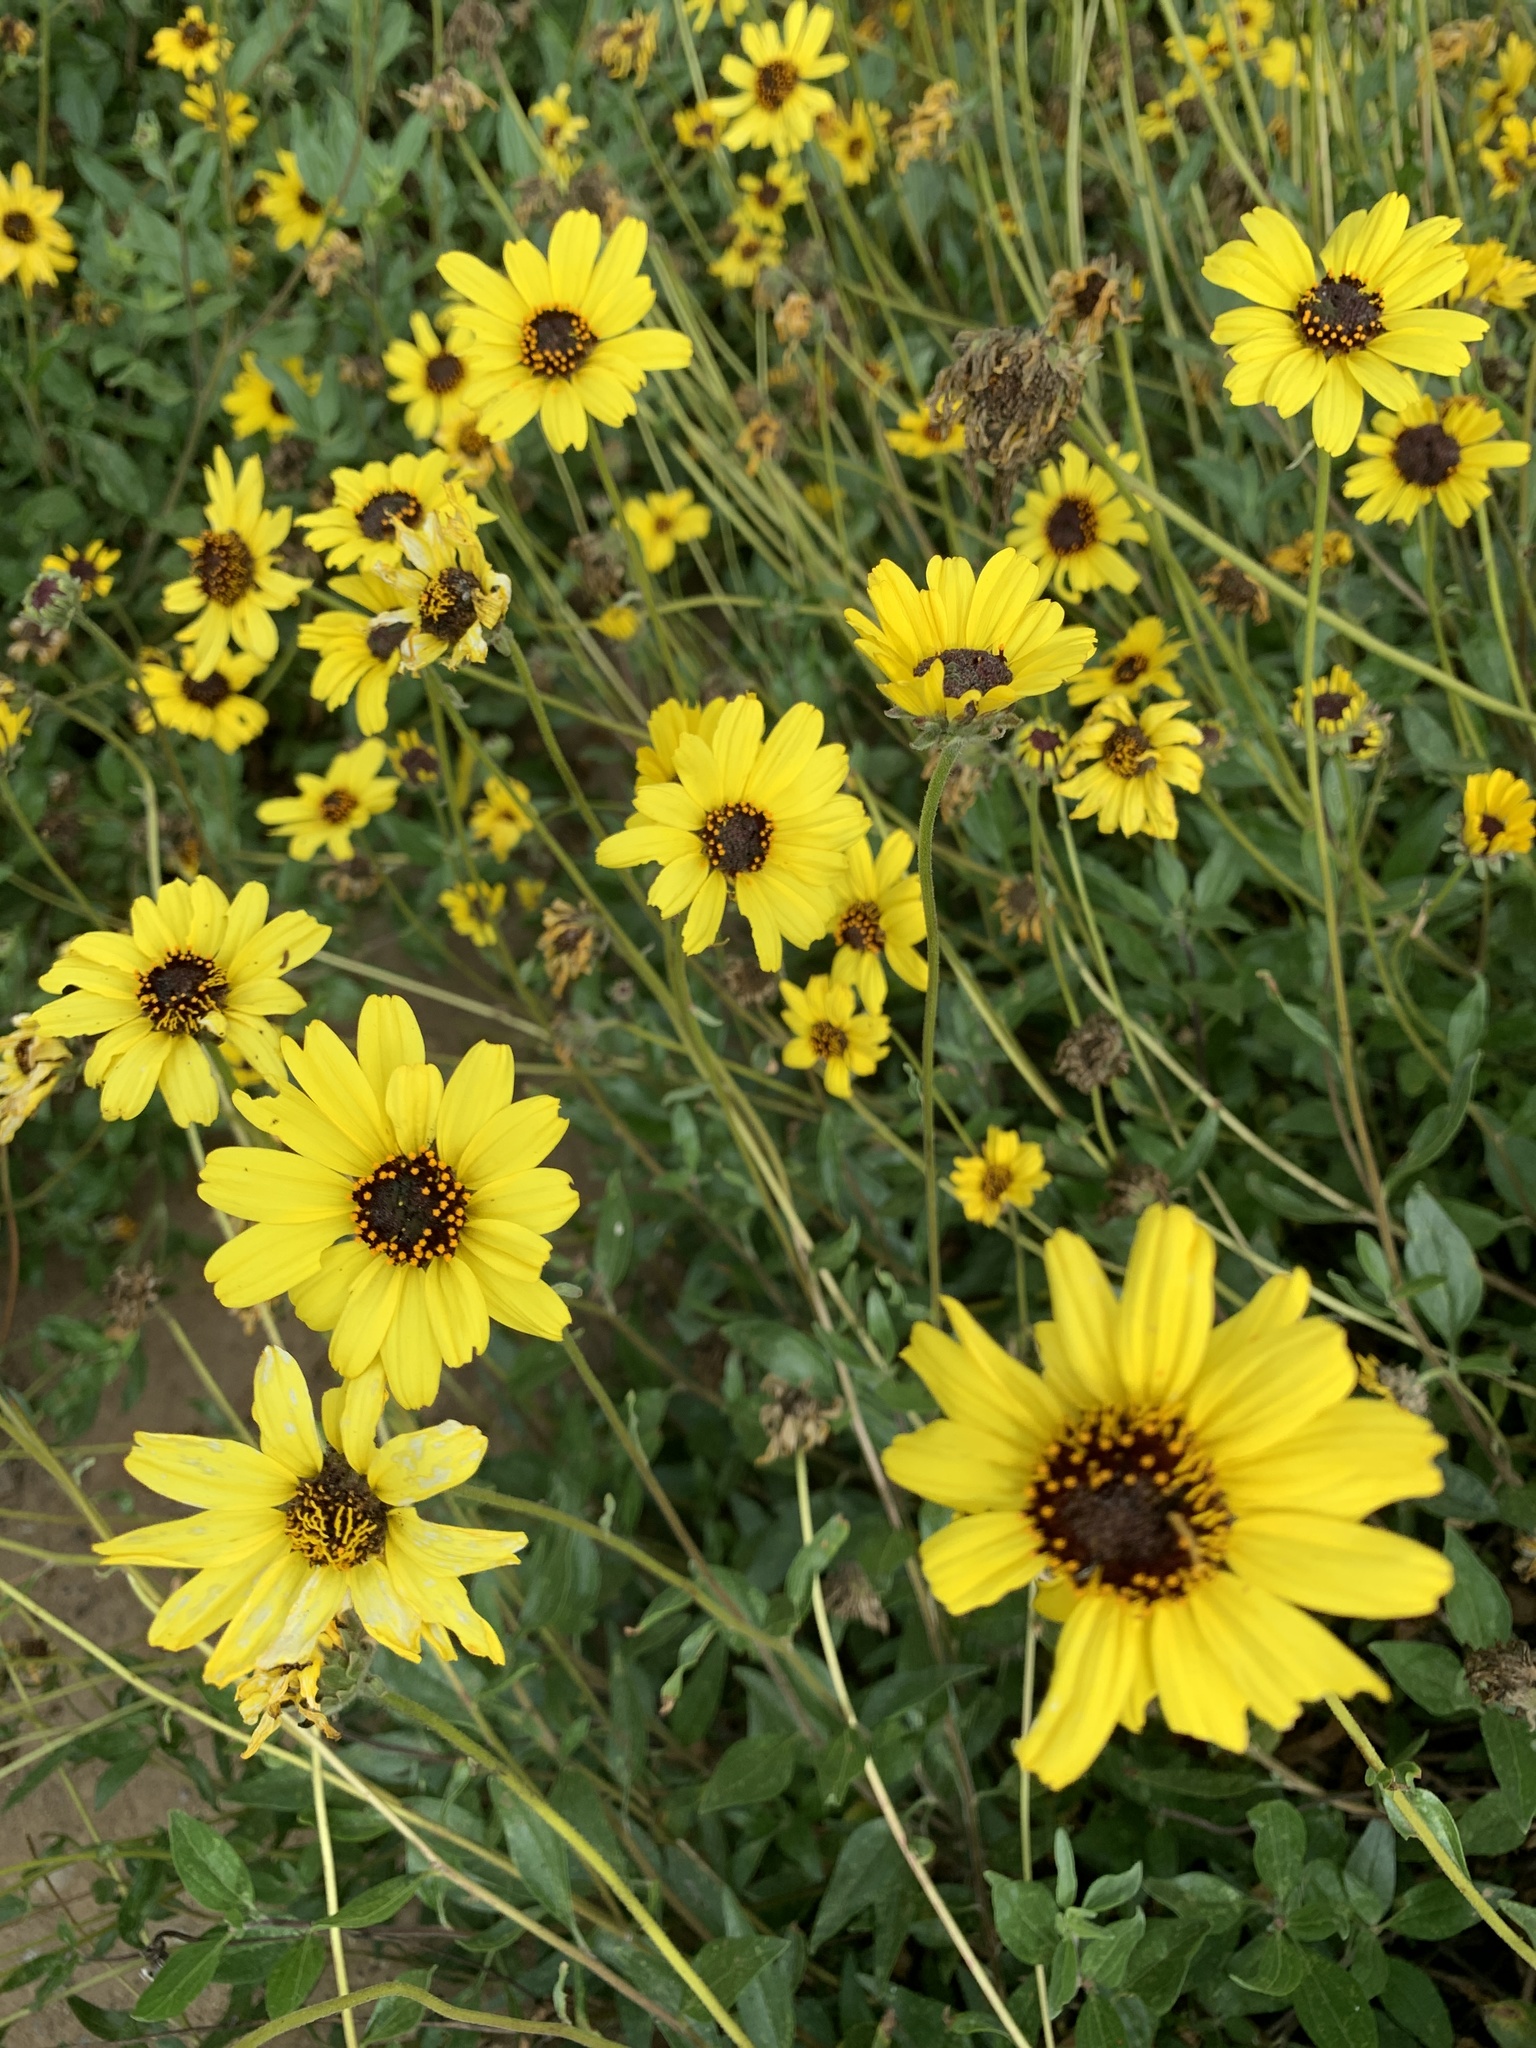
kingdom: Plantae
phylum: Tracheophyta
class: Magnoliopsida
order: Asterales
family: Asteraceae
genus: Encelia
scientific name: Encelia californica
